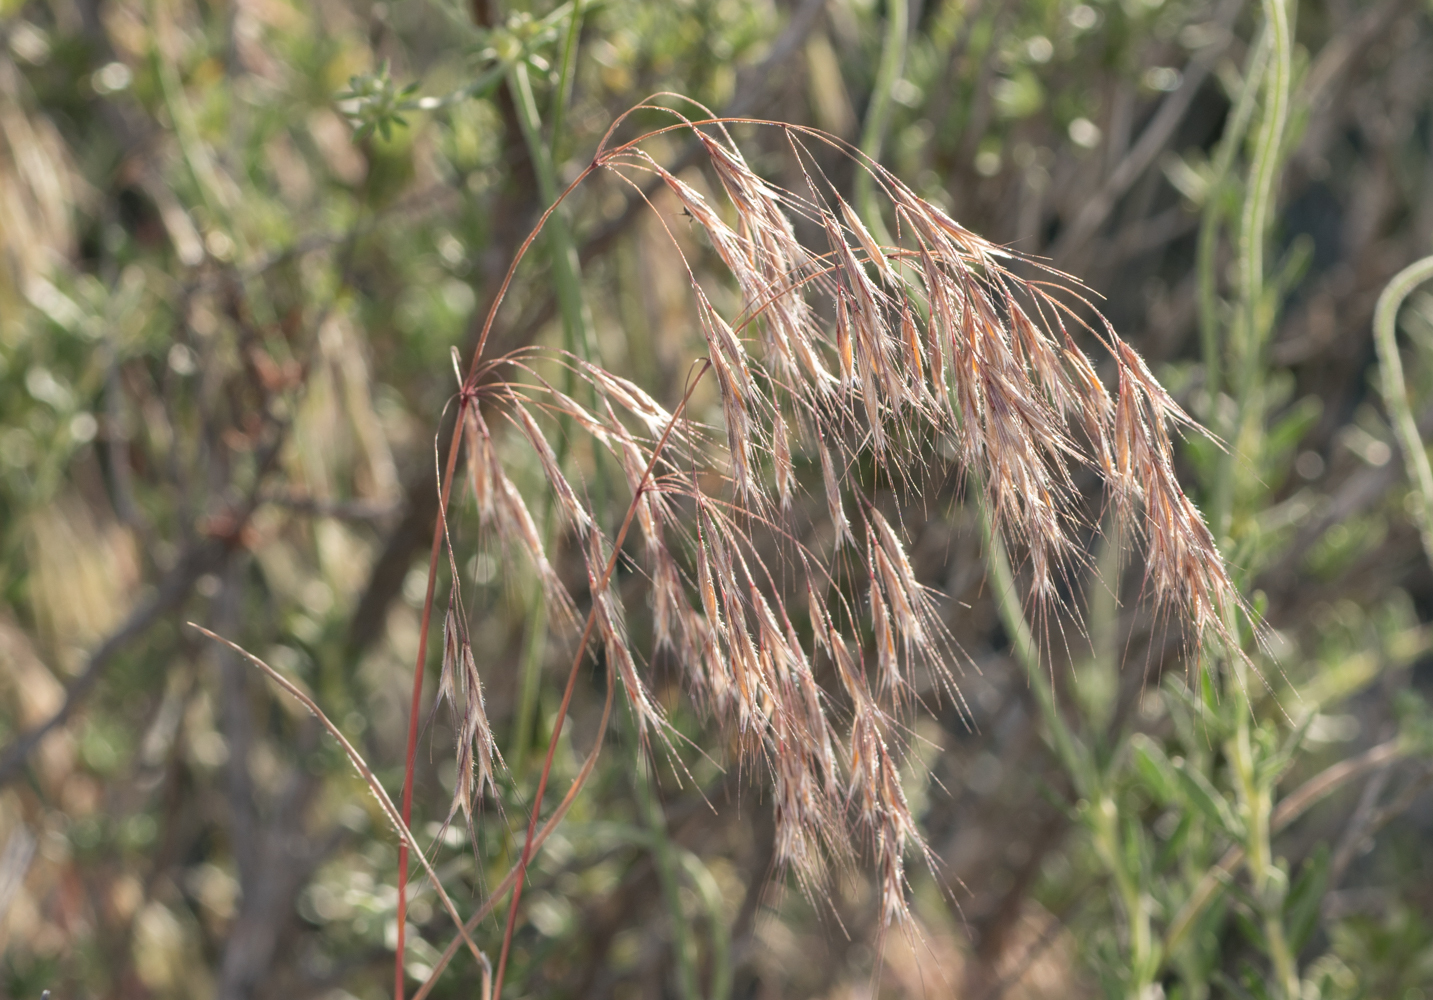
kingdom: Plantae
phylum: Tracheophyta
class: Liliopsida
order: Poales
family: Poaceae
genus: Bromus
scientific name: Bromus tectorum
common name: Cheatgrass
